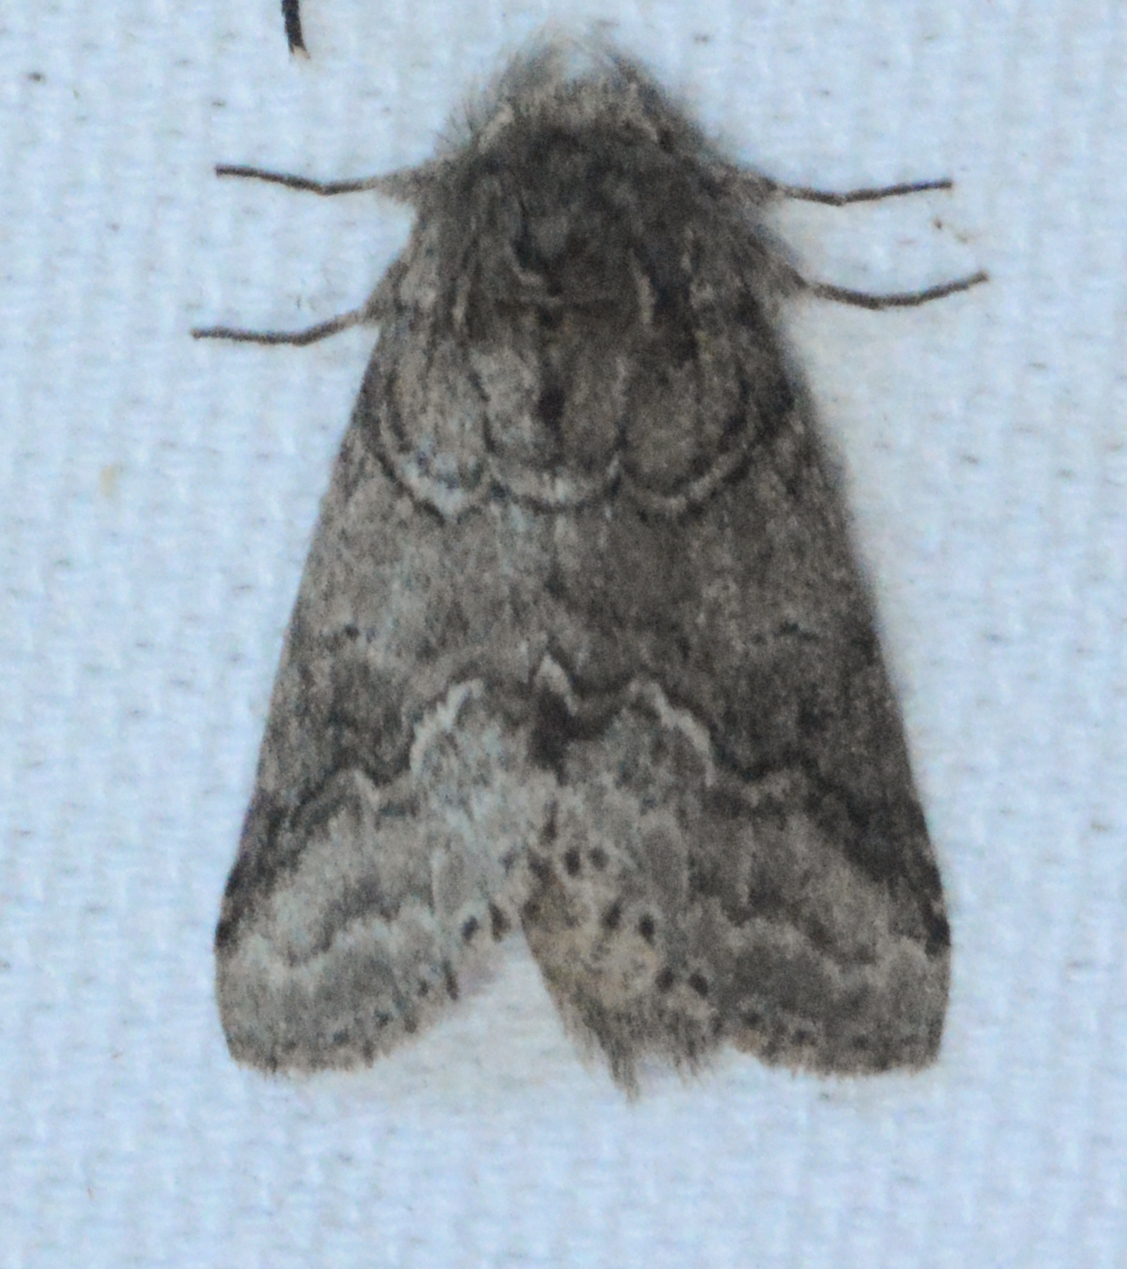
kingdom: Animalia
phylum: Arthropoda
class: Insecta
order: Lepidoptera
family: Notodontidae
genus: Lochmaeus
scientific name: Lochmaeus bilineata
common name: Double-lined prominent
